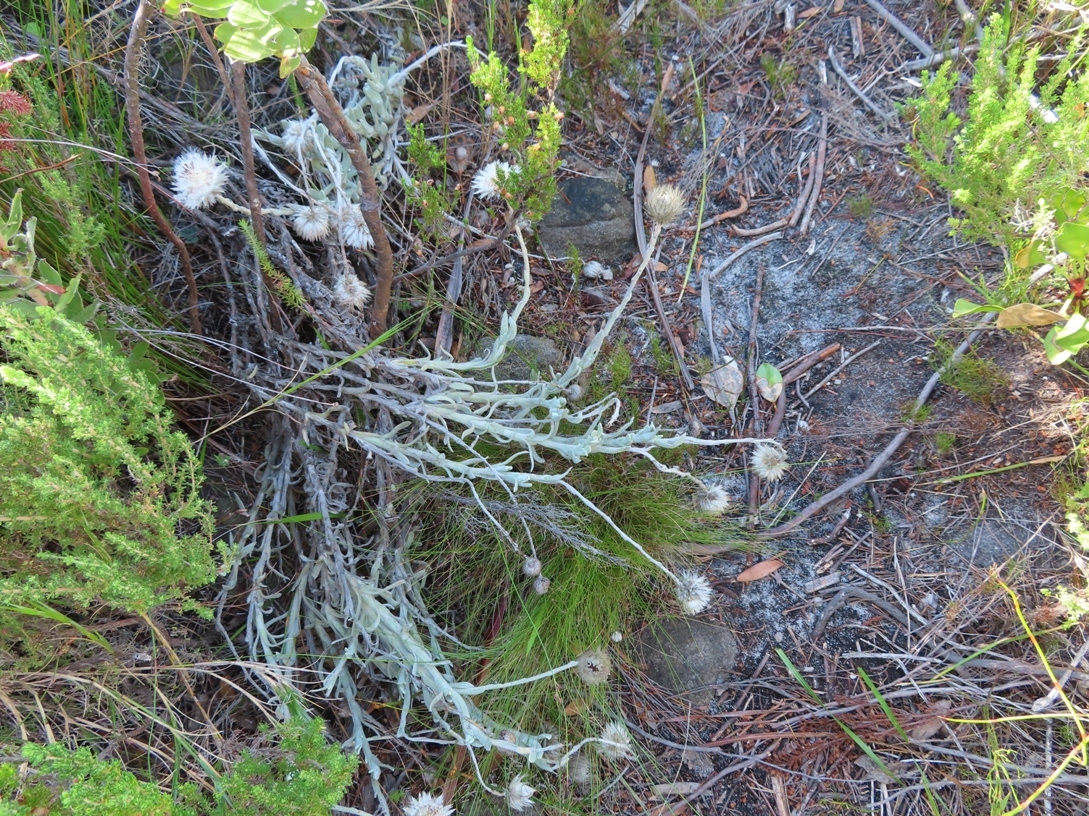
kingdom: Plantae
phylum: Tracheophyta
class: Magnoliopsida
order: Asterales
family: Asteraceae
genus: Syncarpha
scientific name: Syncarpha speciosissima
